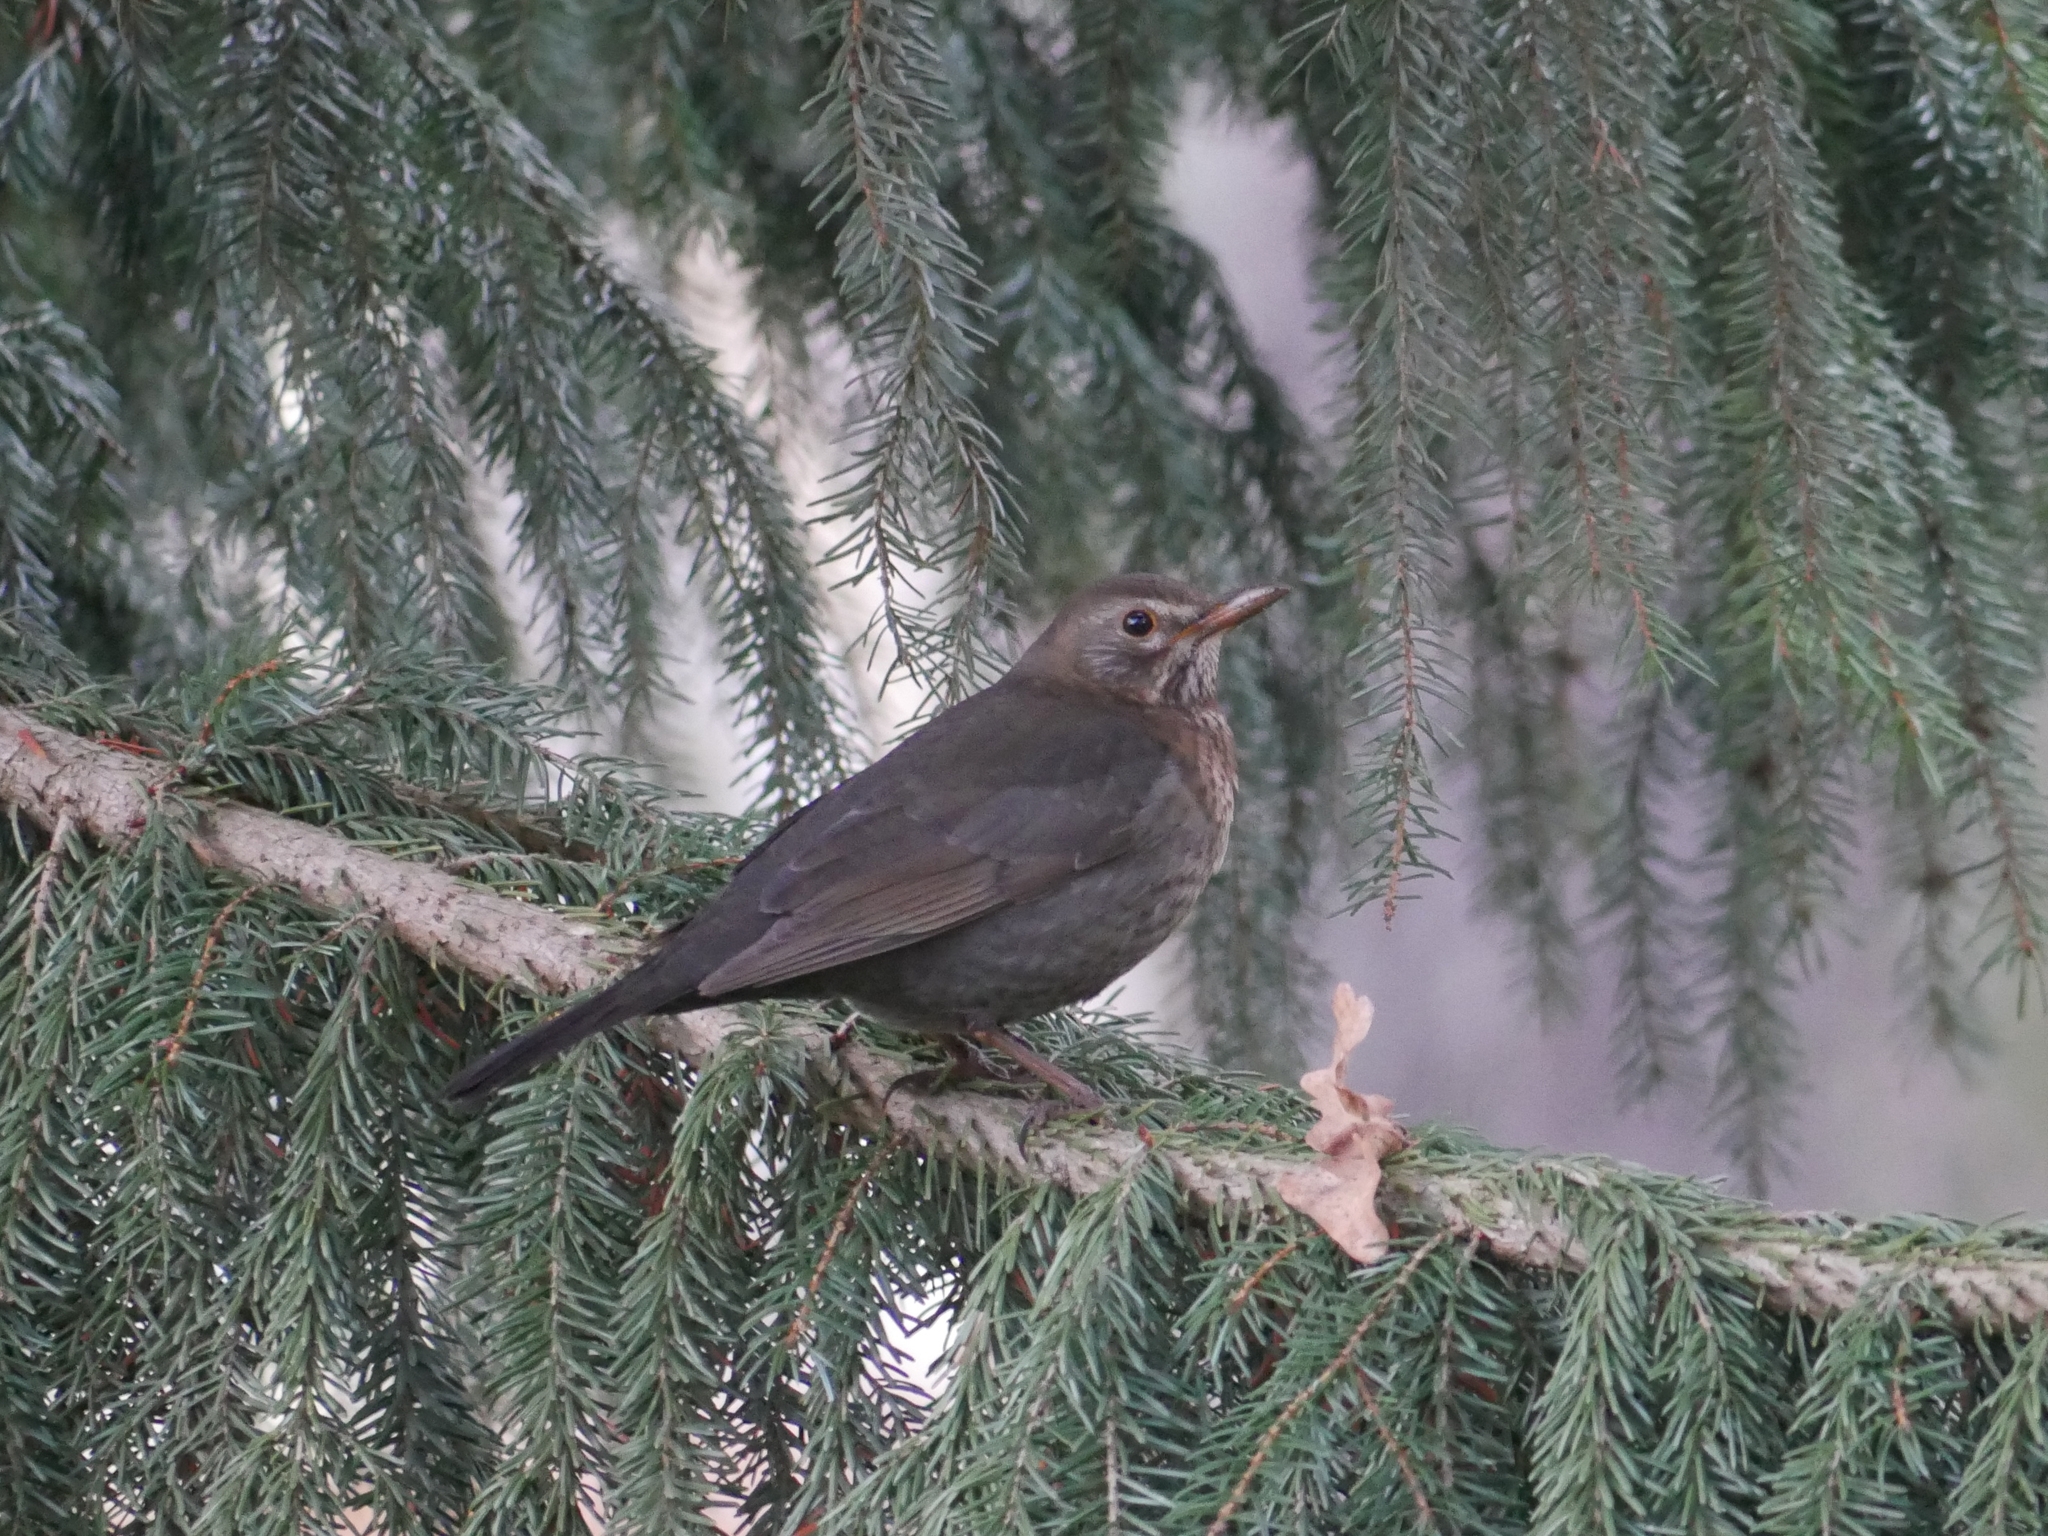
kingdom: Animalia
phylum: Chordata
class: Aves
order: Passeriformes
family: Turdidae
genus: Turdus
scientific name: Turdus merula
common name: Common blackbird
